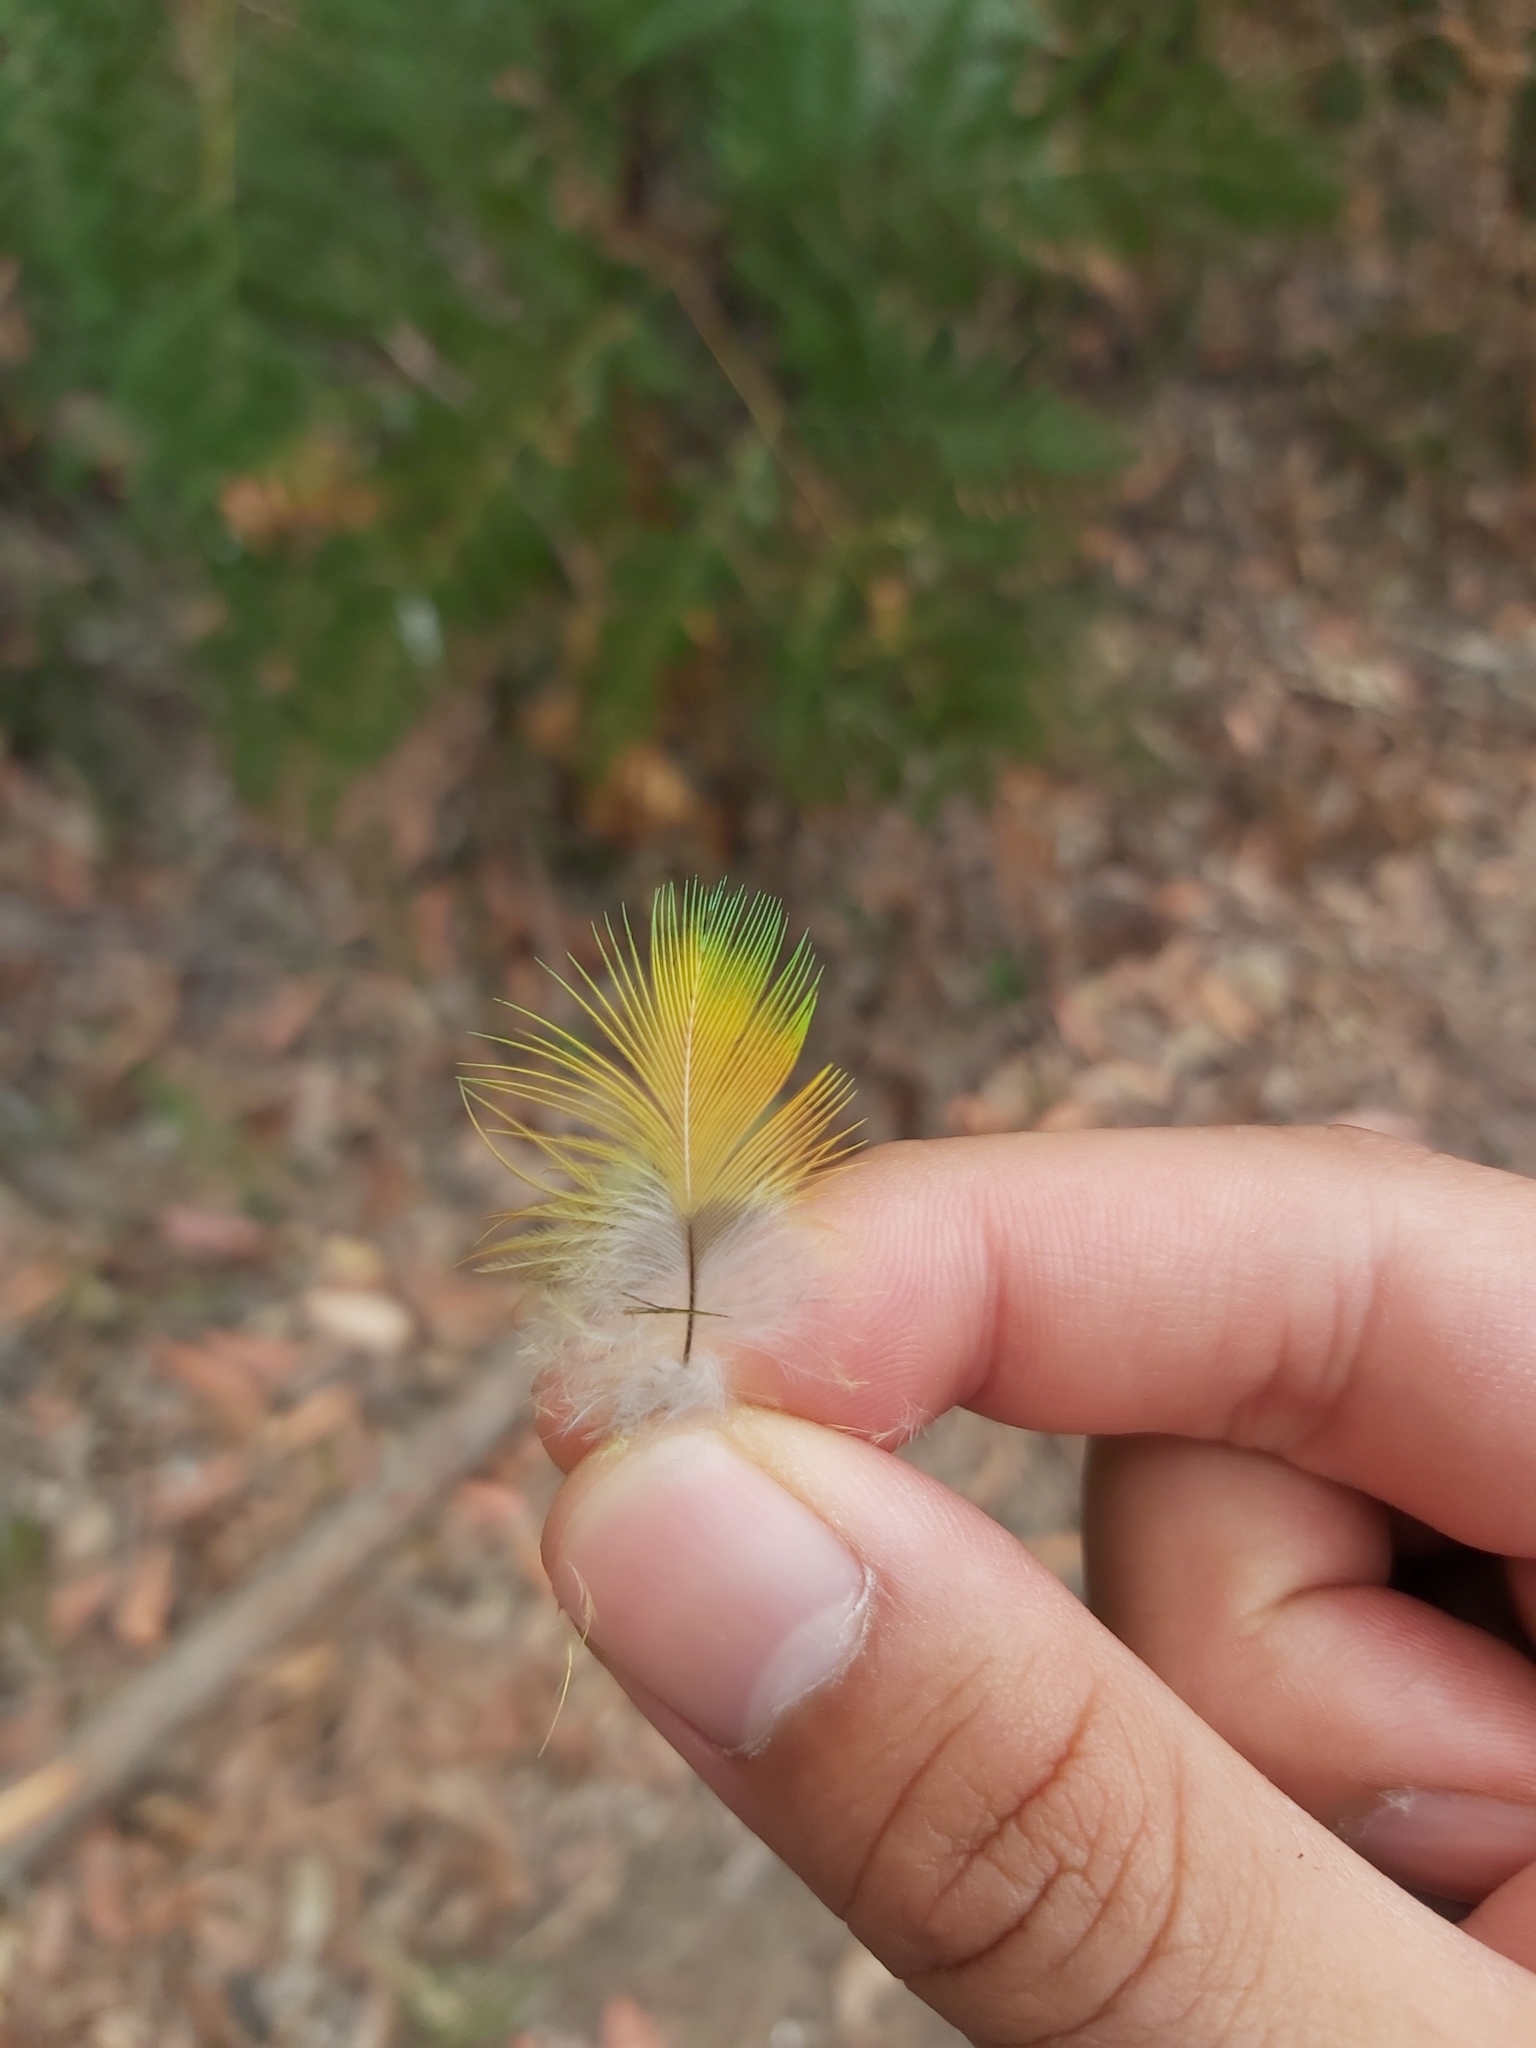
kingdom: Animalia
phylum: Chordata
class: Aves
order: Psittaciformes
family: Psittacidae
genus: Trichoglossus
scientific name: Trichoglossus haematodus
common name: Coconut lorikeet
